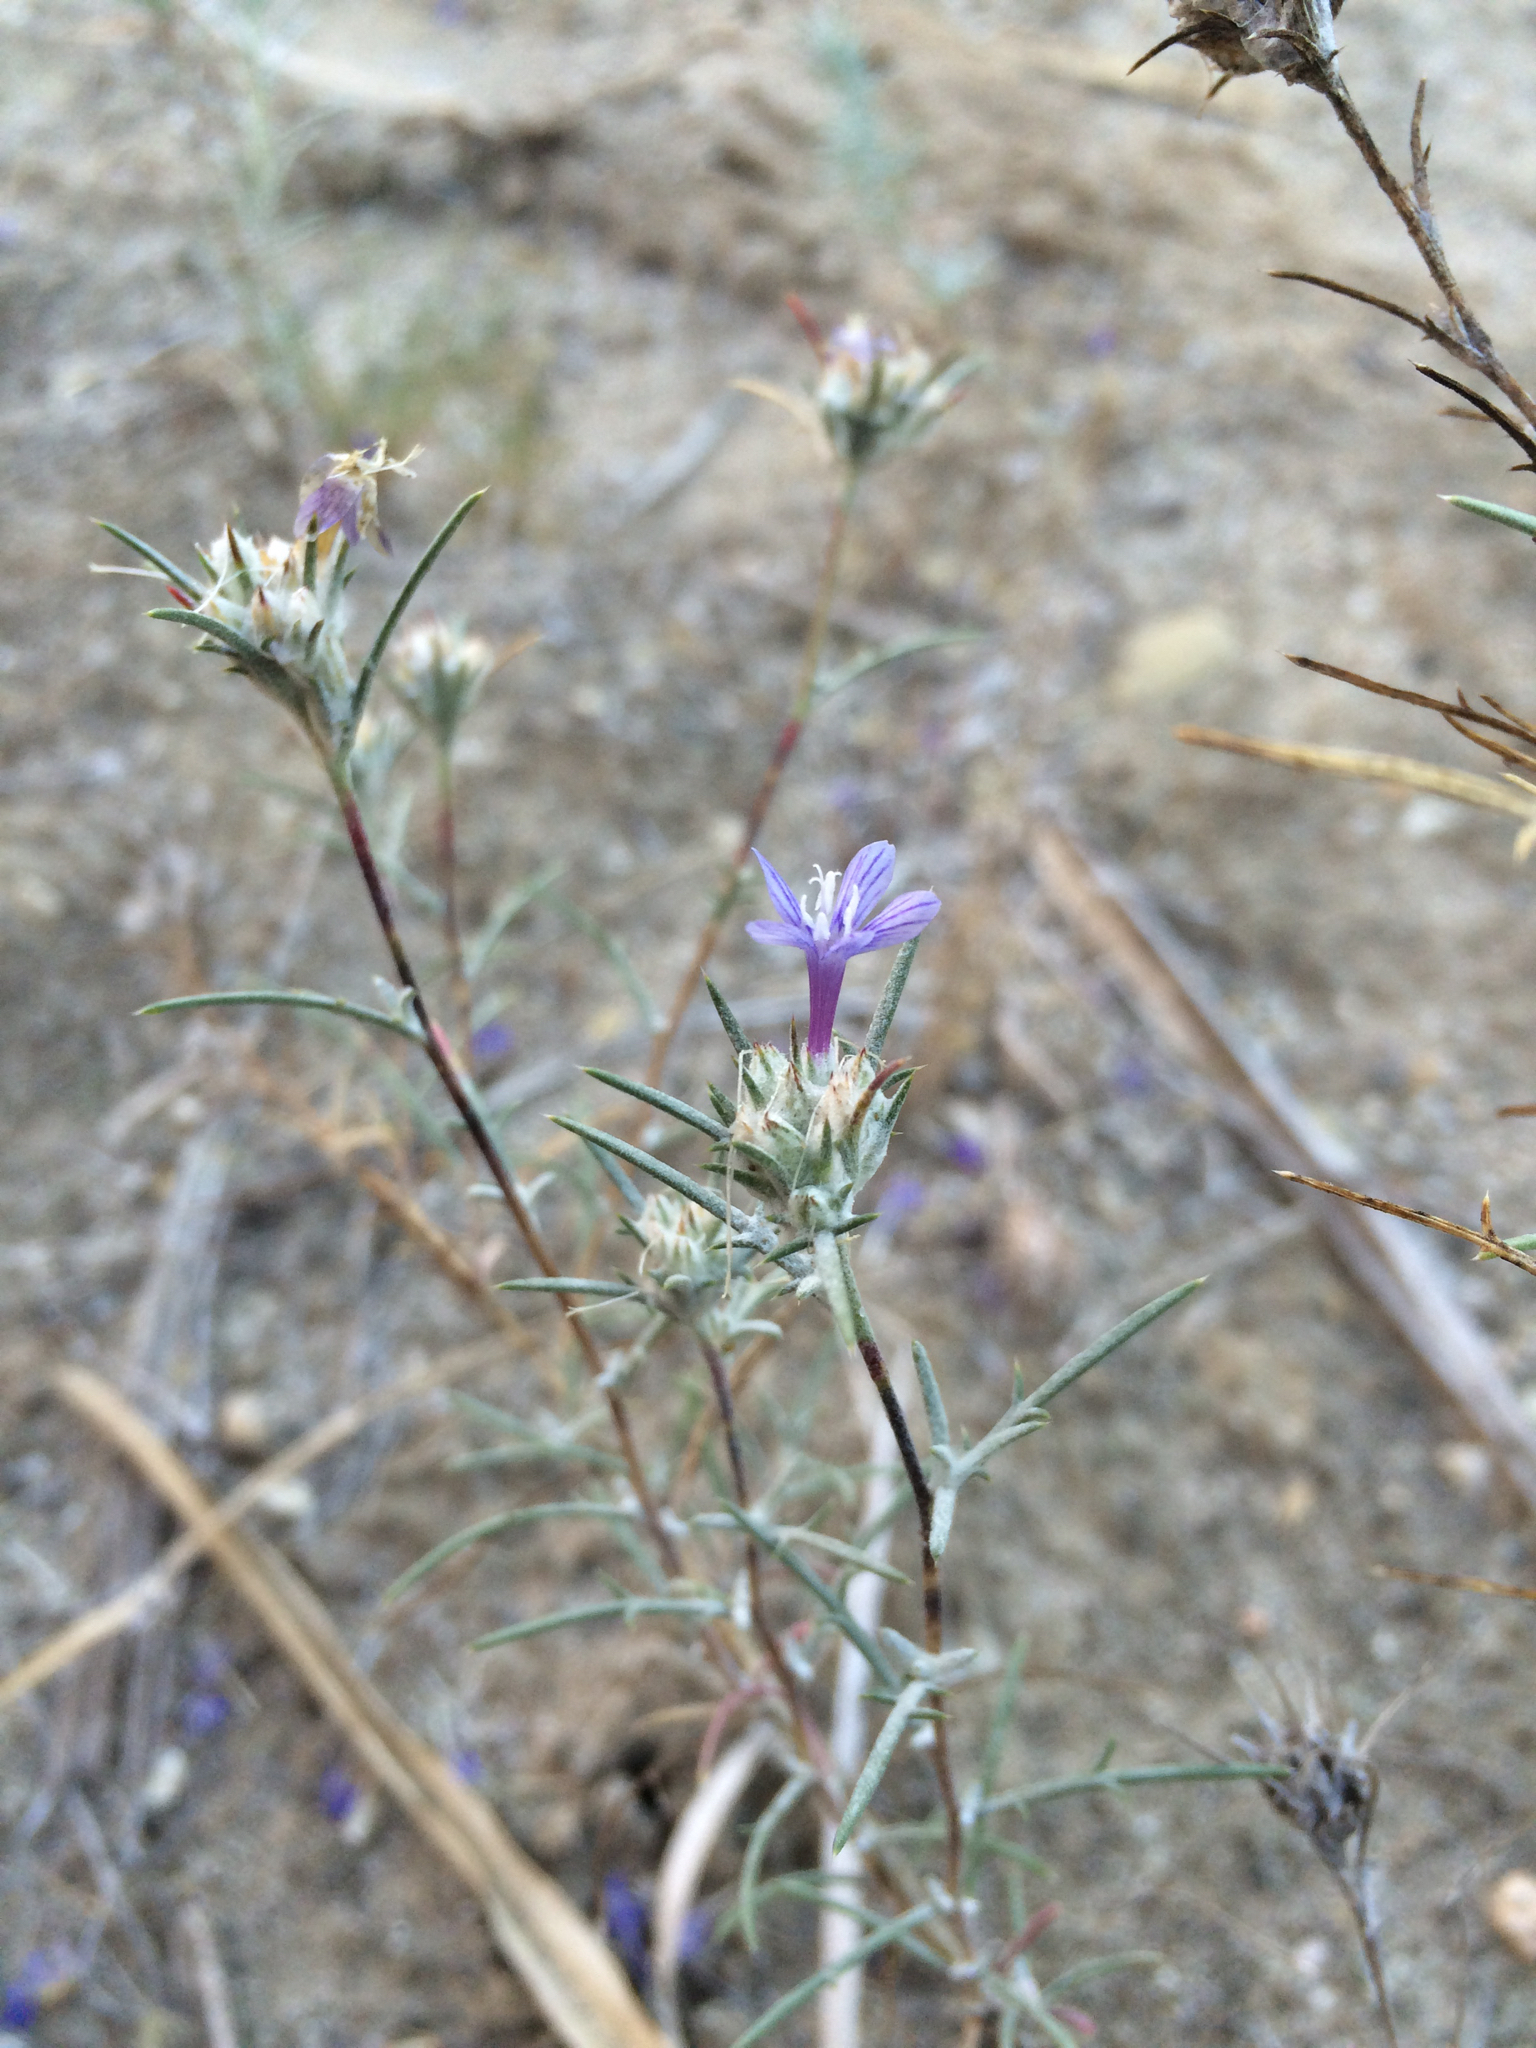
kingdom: Plantae
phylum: Tracheophyta
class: Magnoliopsida
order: Ericales
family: Polemoniaceae
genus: Eriastrum
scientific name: Eriastrum densifolium
